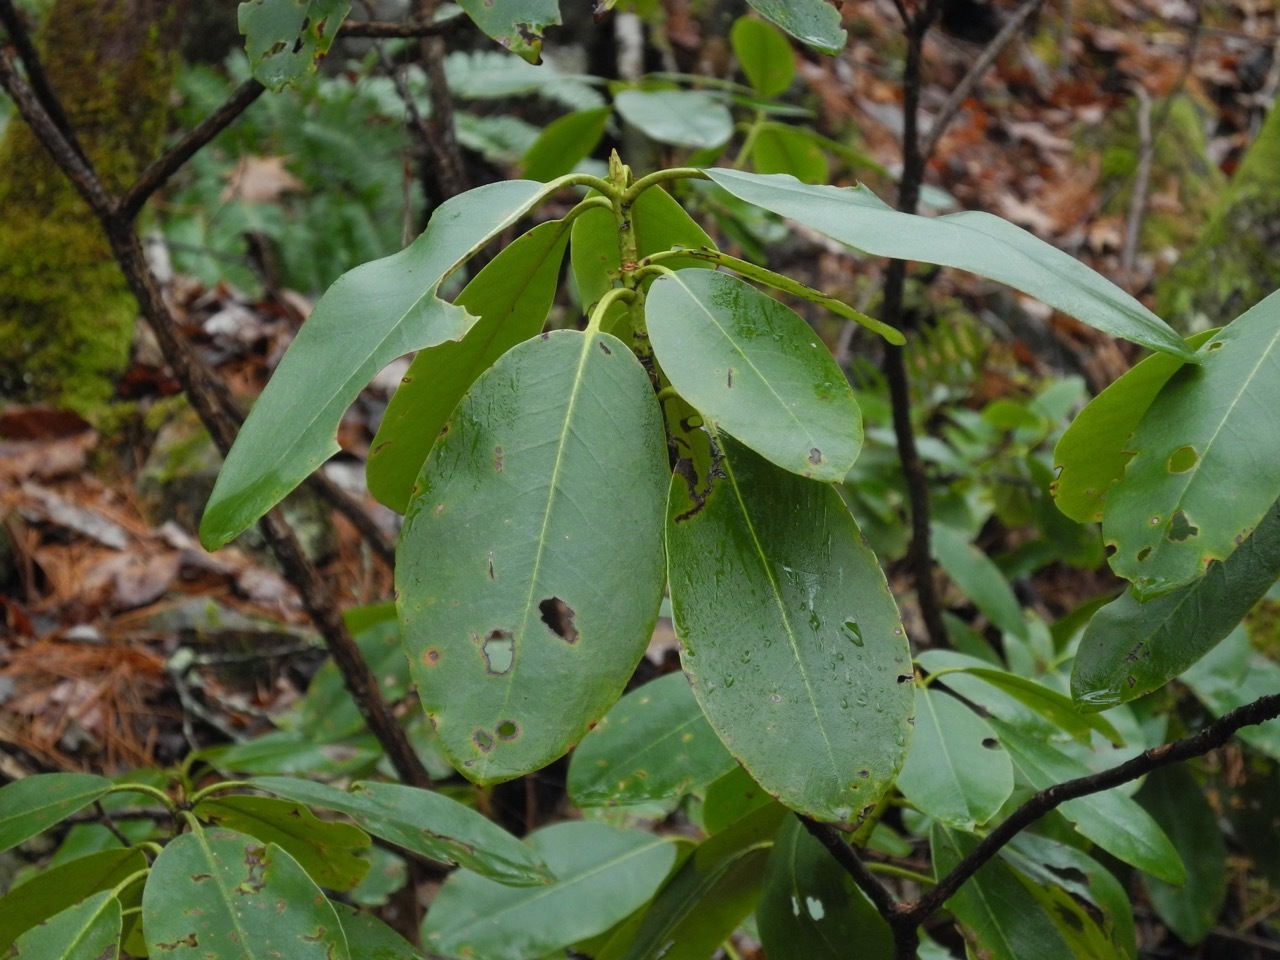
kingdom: Plantae
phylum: Tracheophyta
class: Magnoliopsida
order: Ericales
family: Ericaceae
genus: Rhododendron
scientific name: Rhododendron catawbiense
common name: Catawba rhododendron
